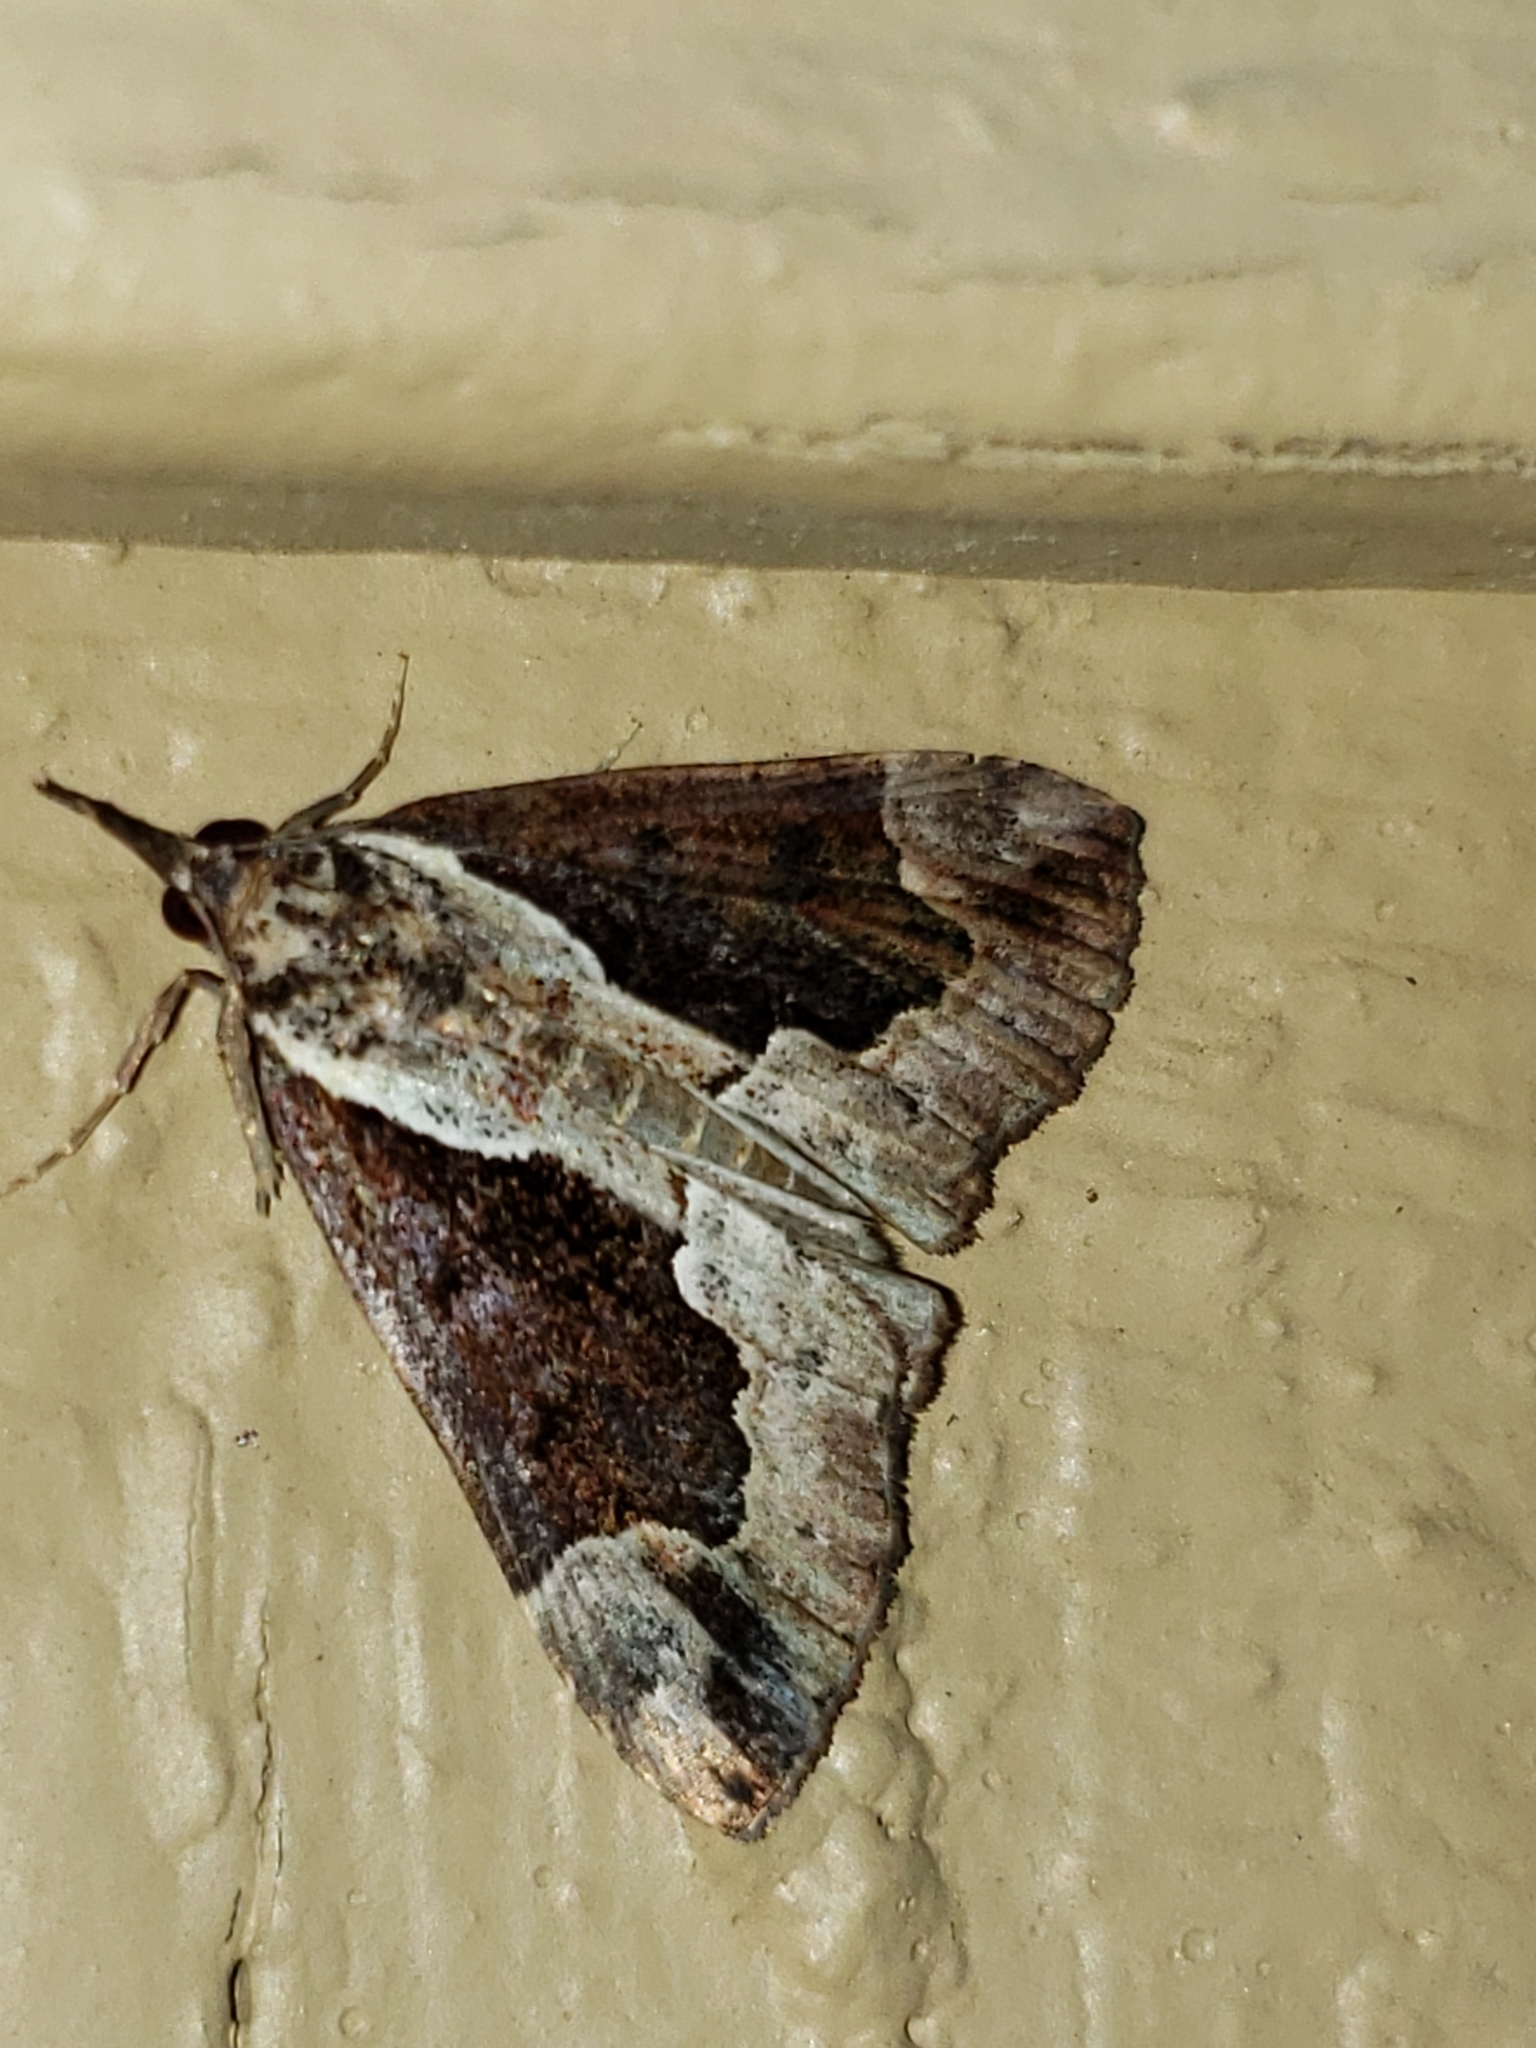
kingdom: Animalia
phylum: Arthropoda
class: Insecta
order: Lepidoptera
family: Erebidae
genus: Hypena
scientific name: Hypena baltimoralis
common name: Baltimore snout
